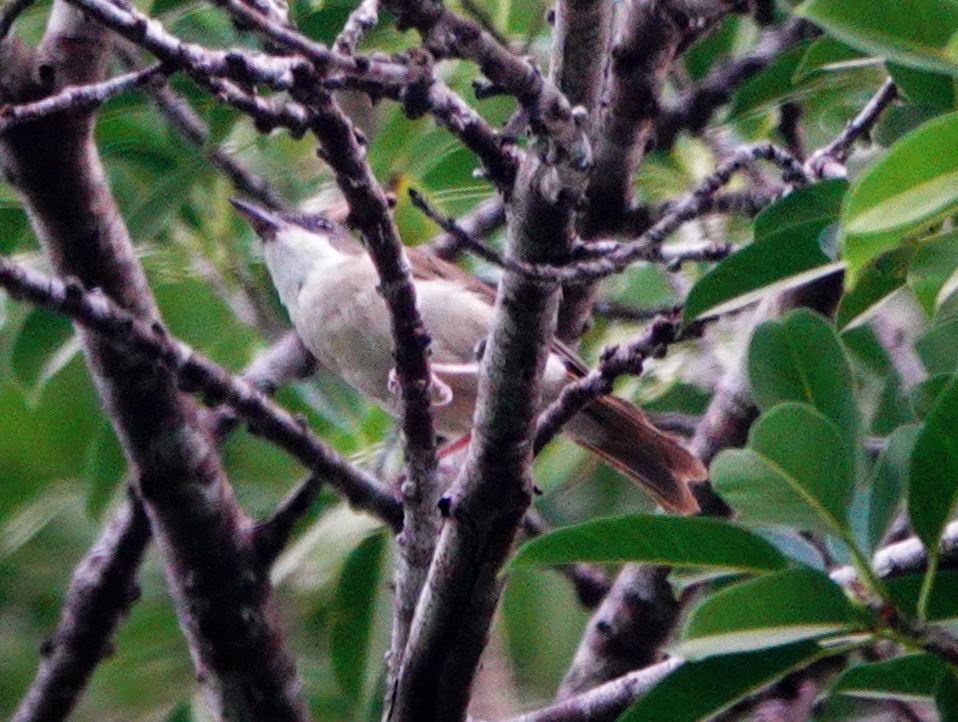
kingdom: Animalia
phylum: Chordata
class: Aves
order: Passeriformes
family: Pachycephalidae
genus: Pachycephala
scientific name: Pachycephala phaionota
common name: Island whistler
